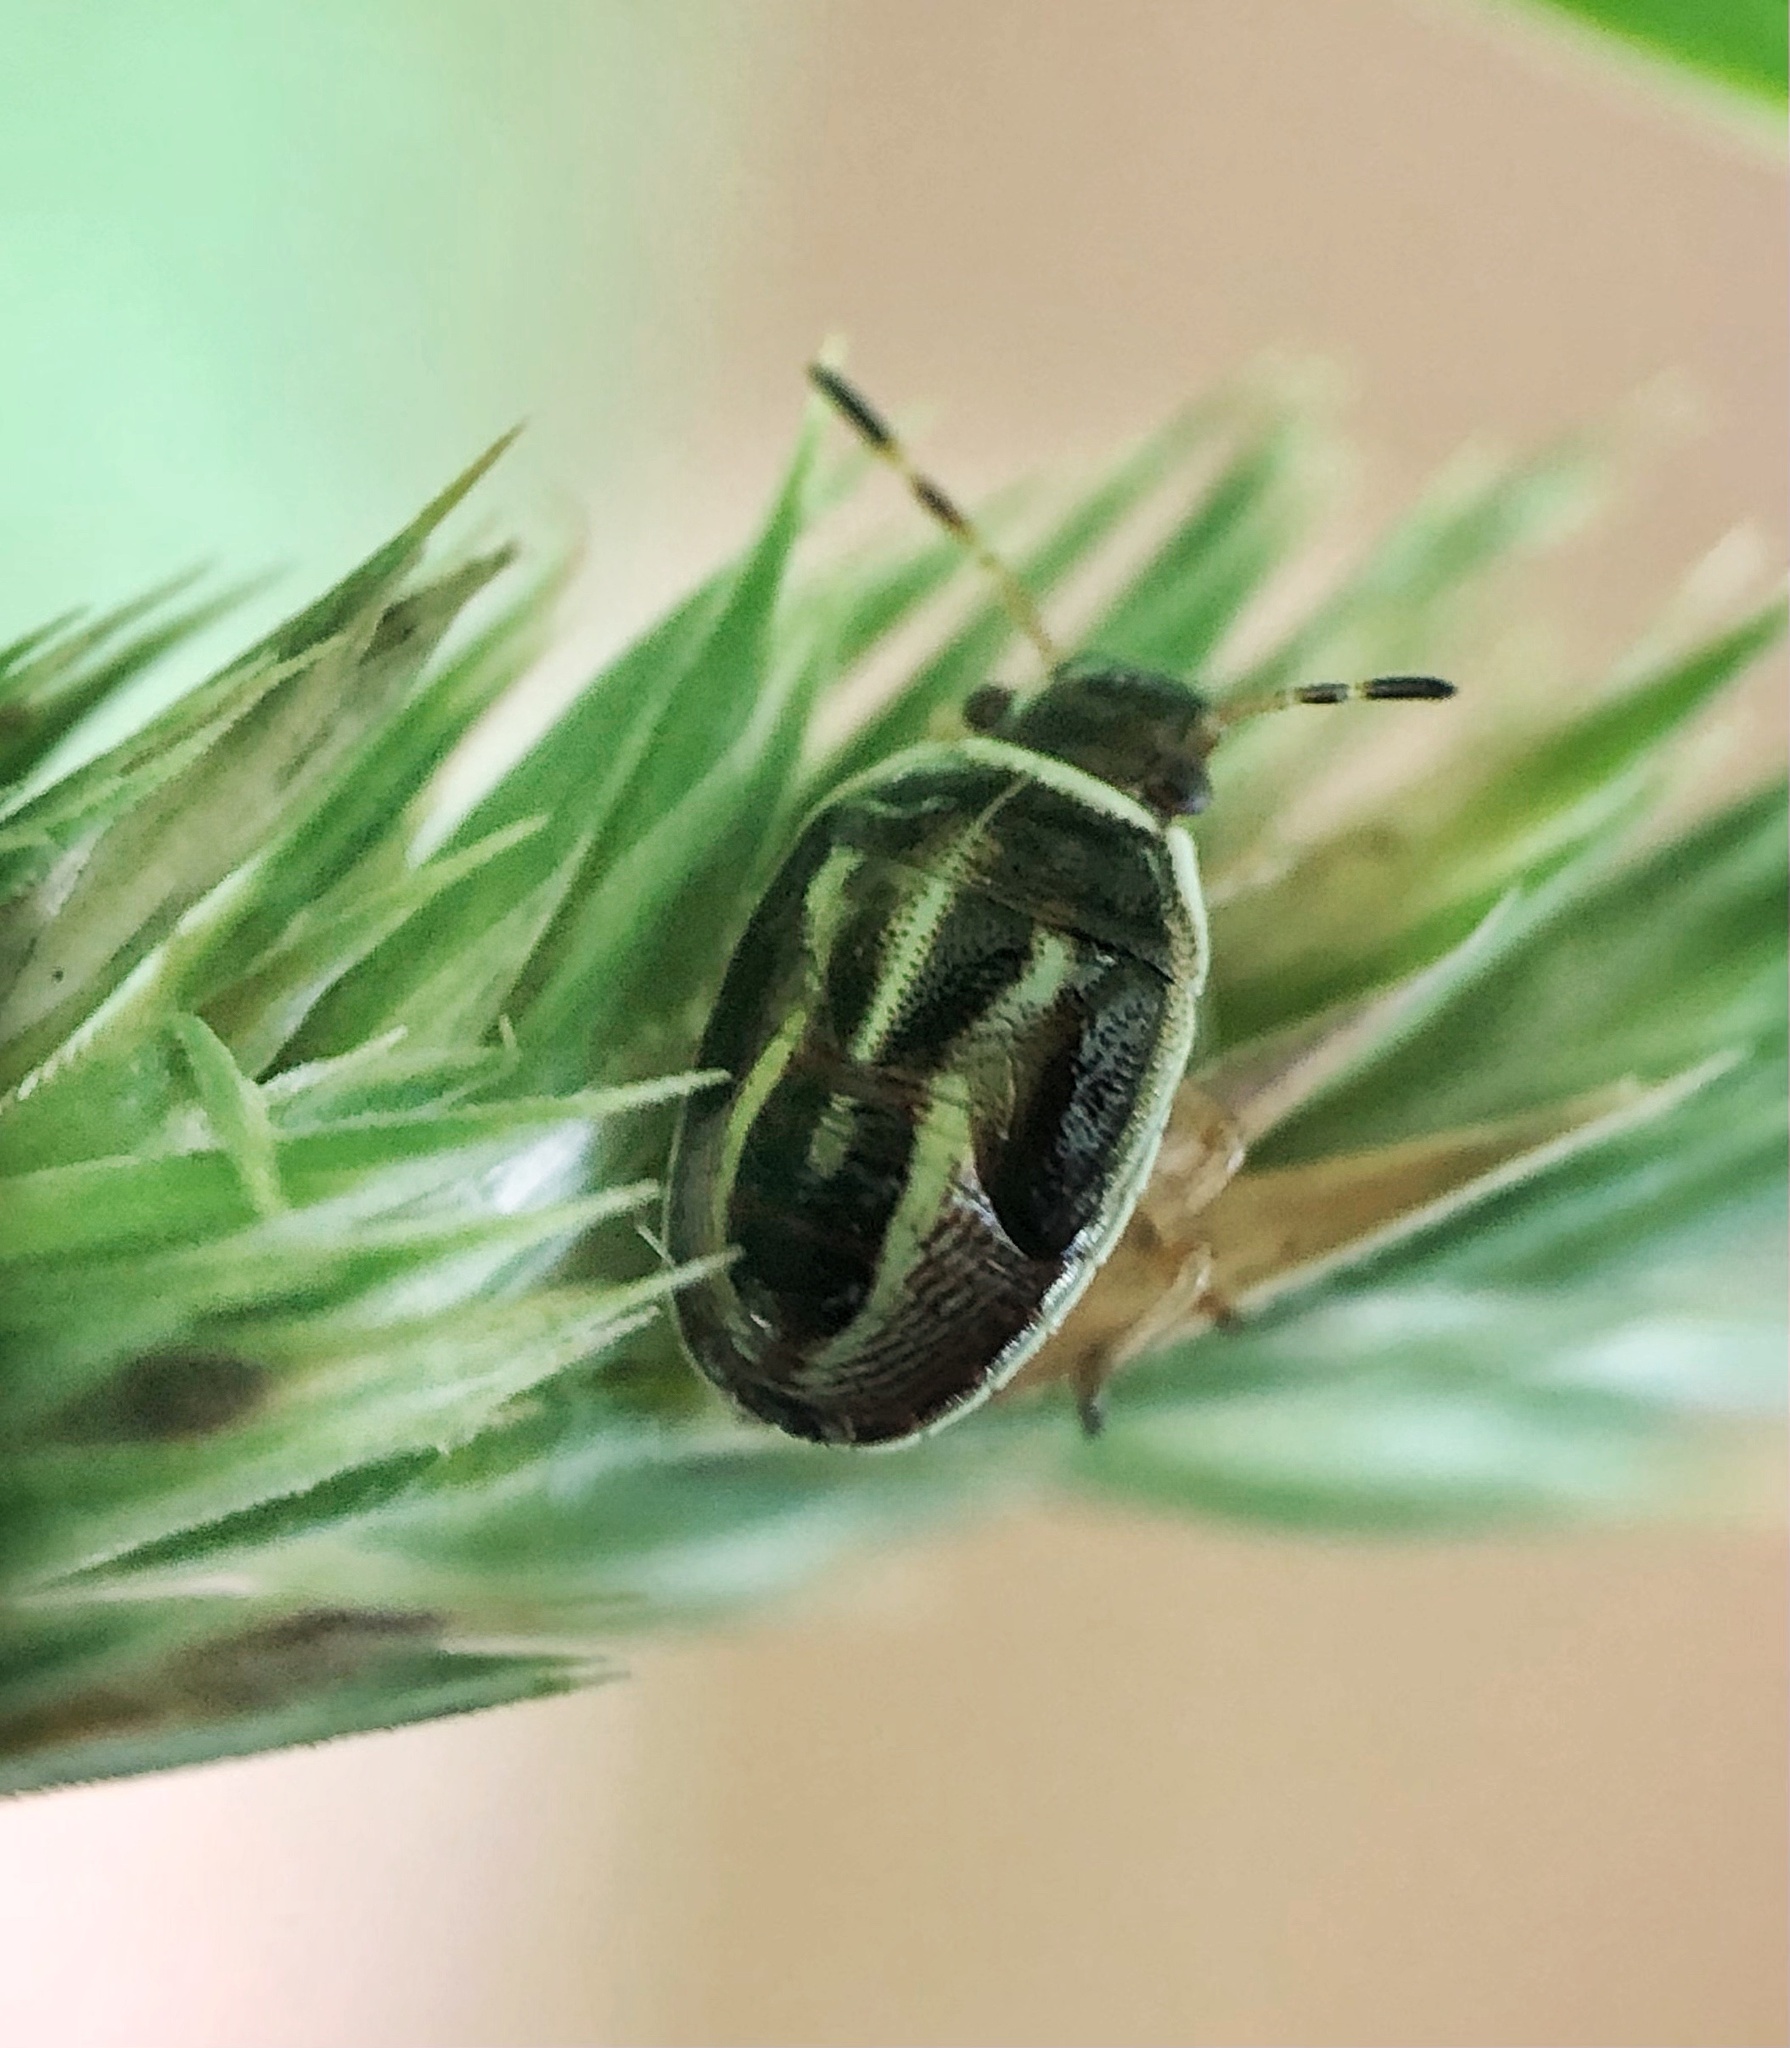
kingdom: Animalia
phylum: Arthropoda
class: Insecta
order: Hemiptera
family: Pentatomidae
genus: Mormidea
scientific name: Mormidea lugens
